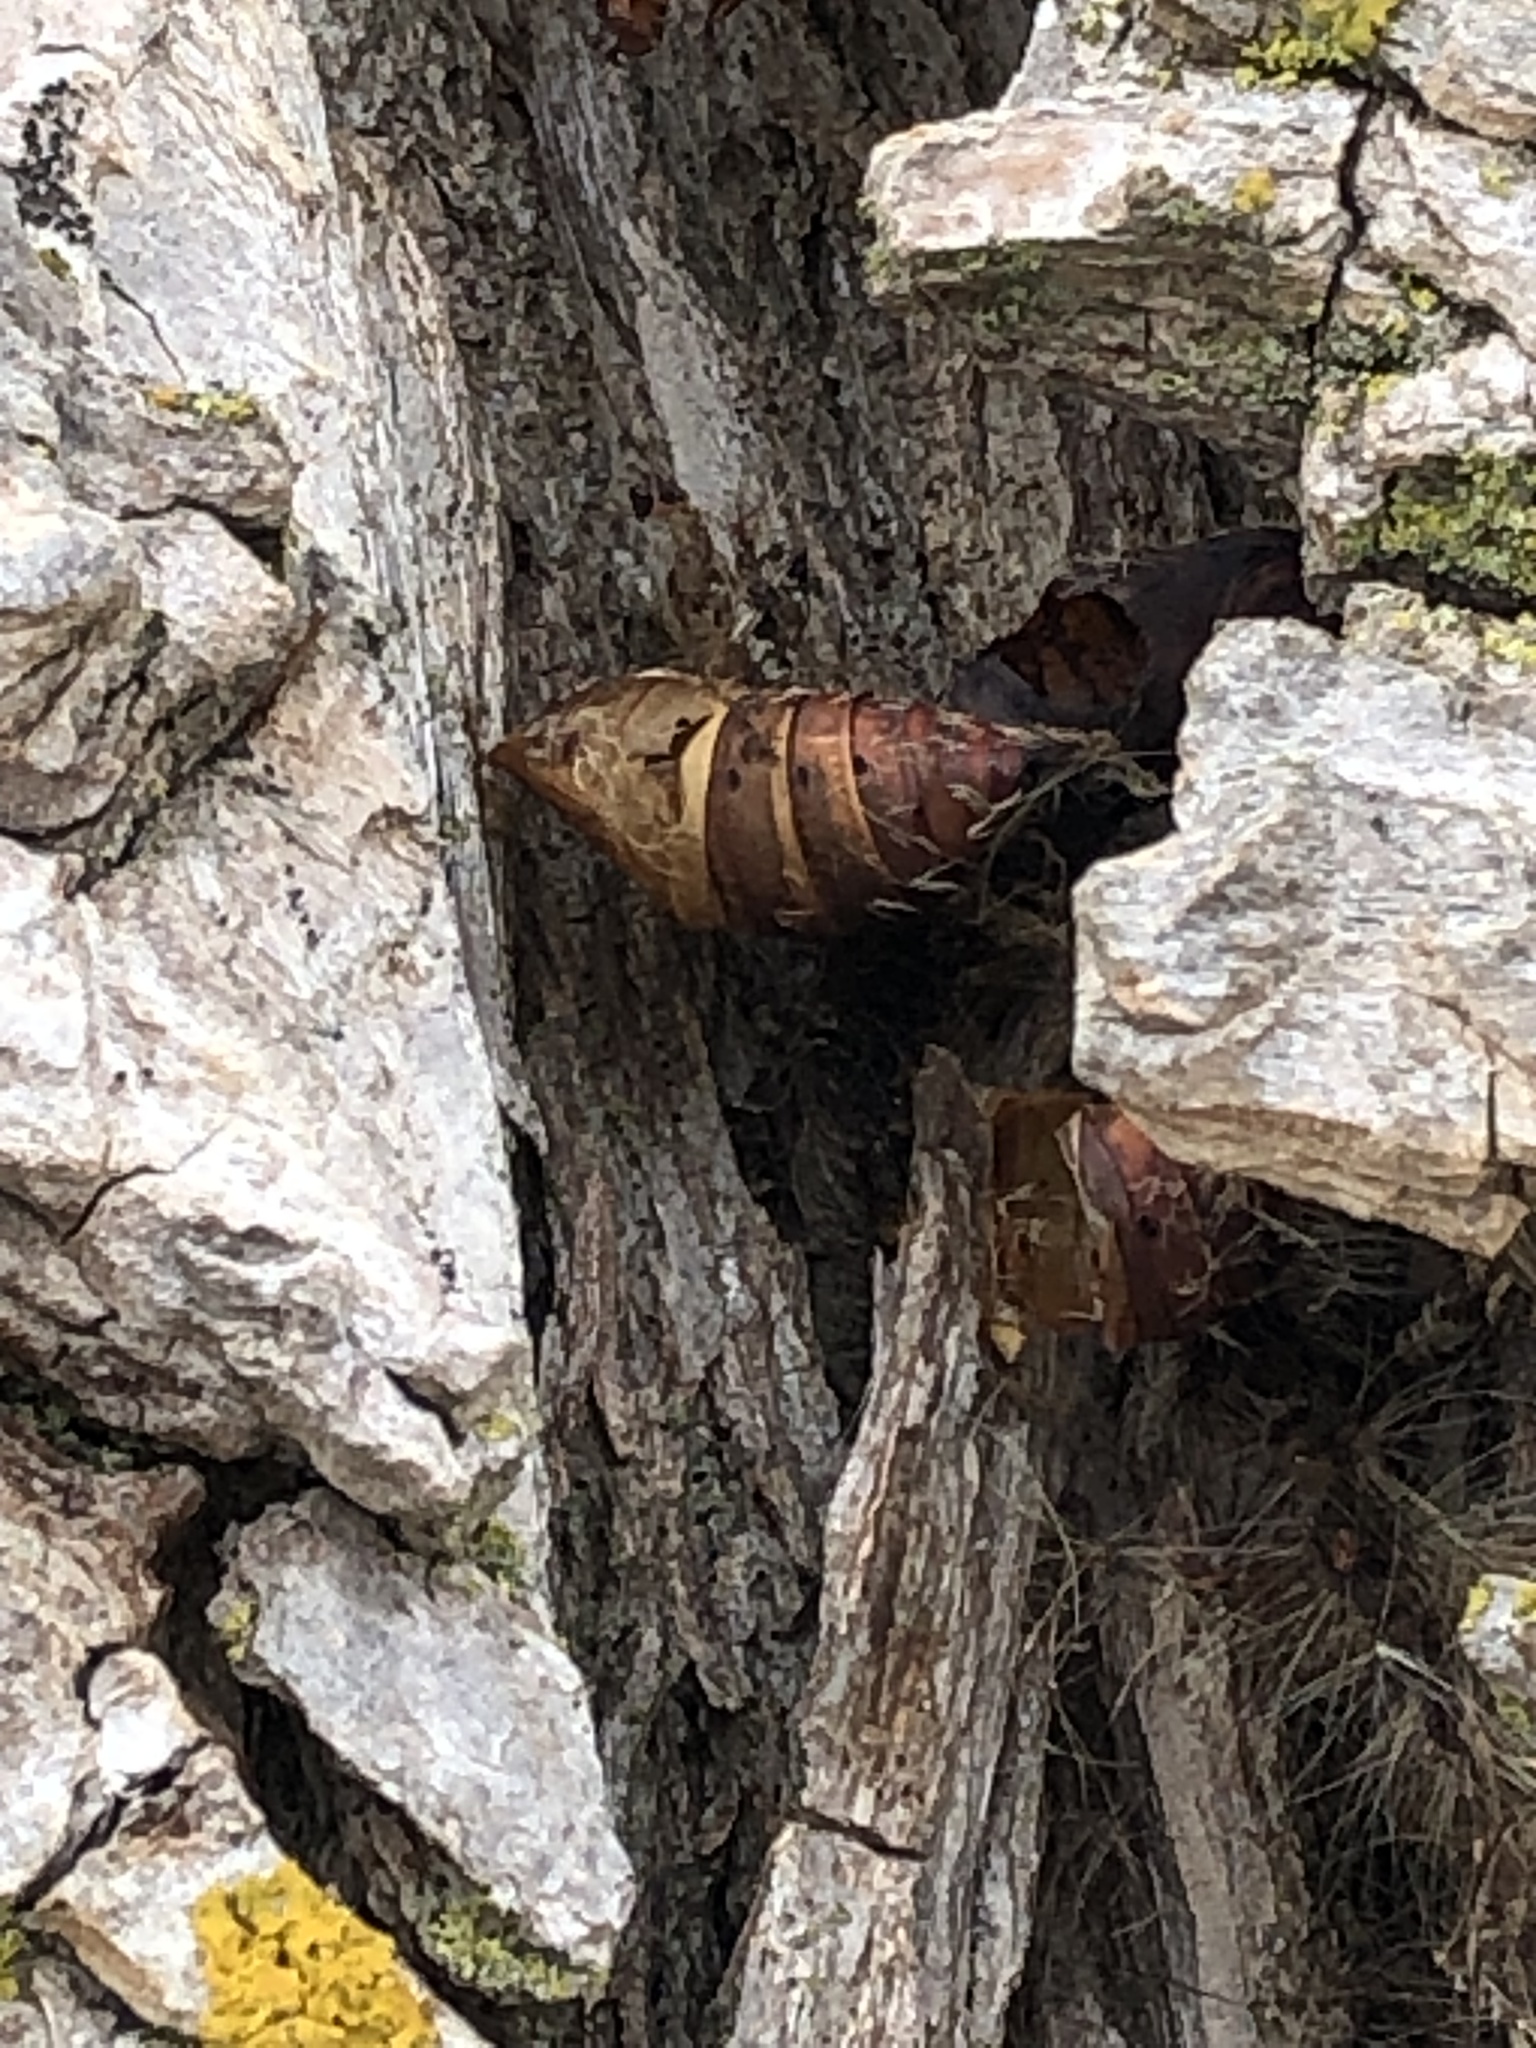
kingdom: Animalia
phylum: Arthropoda
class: Insecta
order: Lepidoptera
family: Erebidae
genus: Lymantria
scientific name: Lymantria dispar
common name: Gypsy moth
